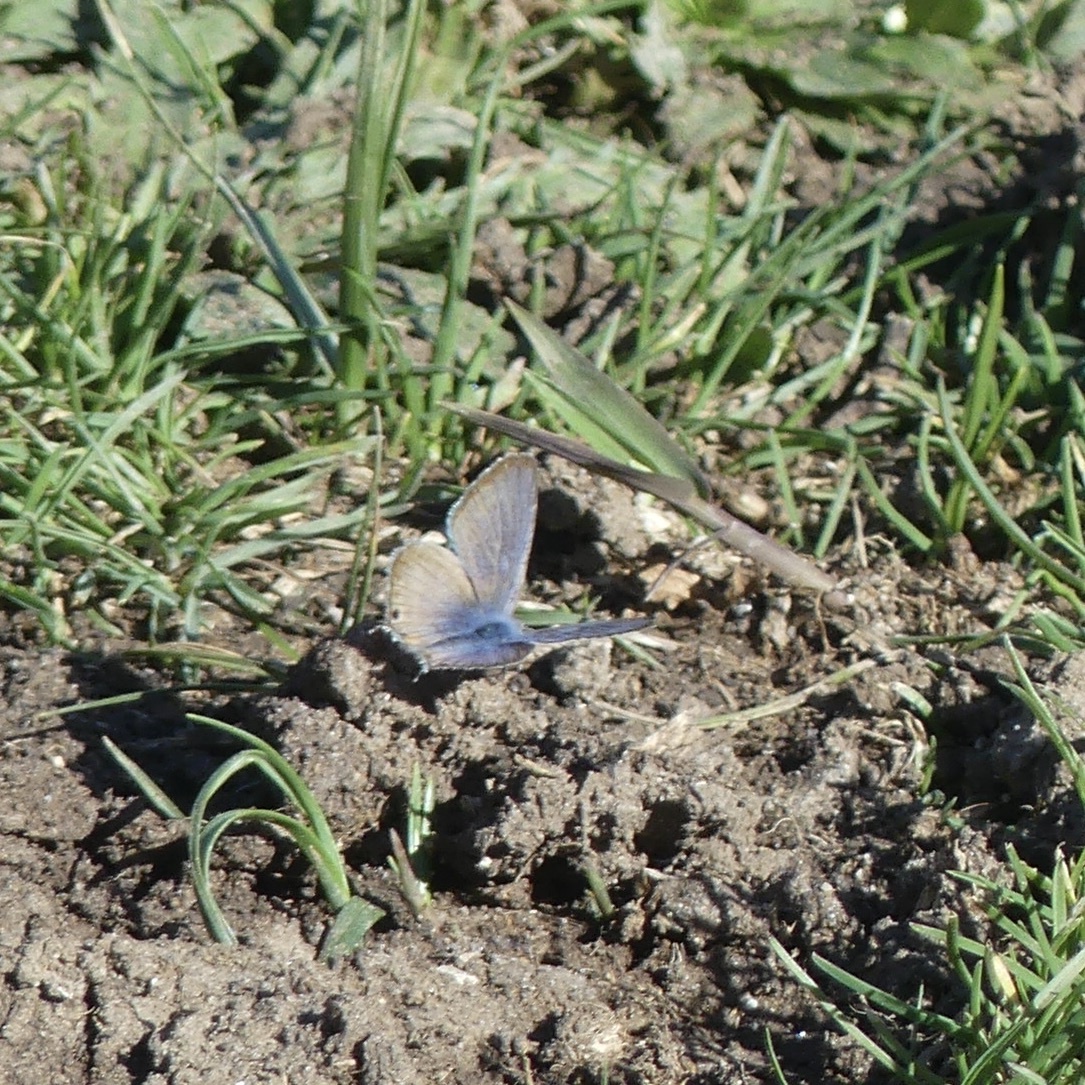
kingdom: Animalia
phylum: Arthropoda
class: Insecta
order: Lepidoptera
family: Lycaenidae
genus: Lampides
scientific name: Lampides boeticus
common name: Long-tailed blue
